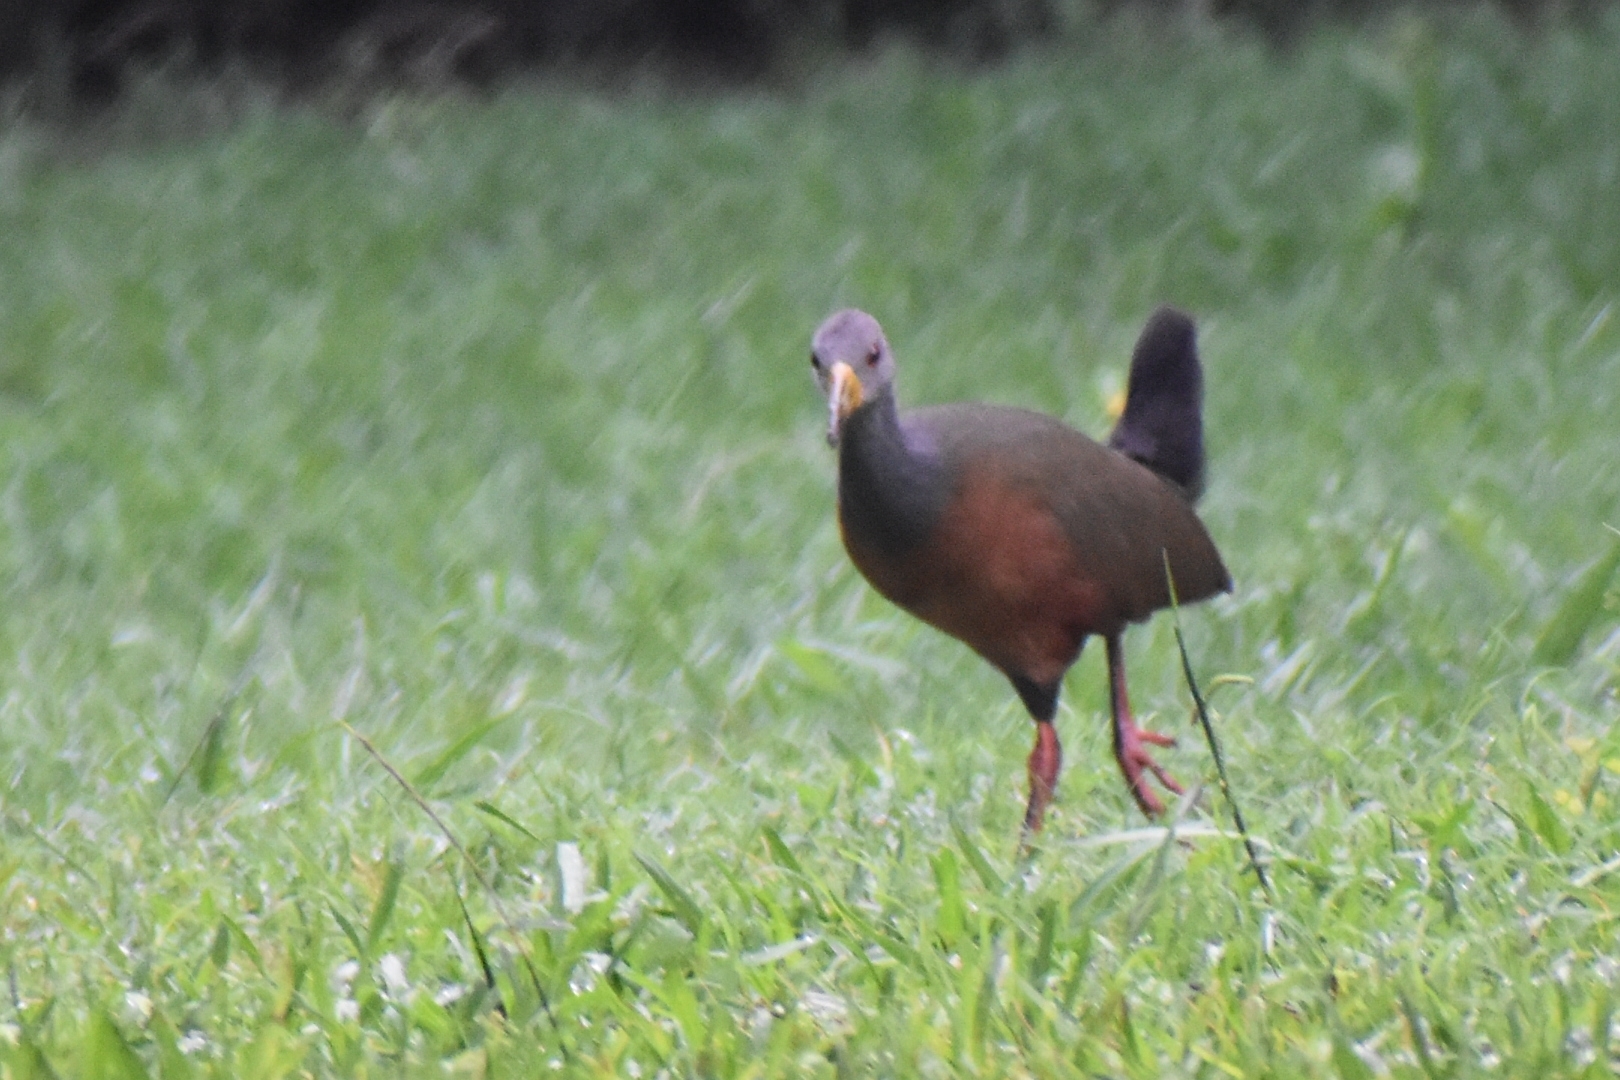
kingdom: Animalia
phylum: Chordata
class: Aves
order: Gruiformes
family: Rallidae
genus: Aramides
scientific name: Aramides cajanea
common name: Gray-necked wood-rail
